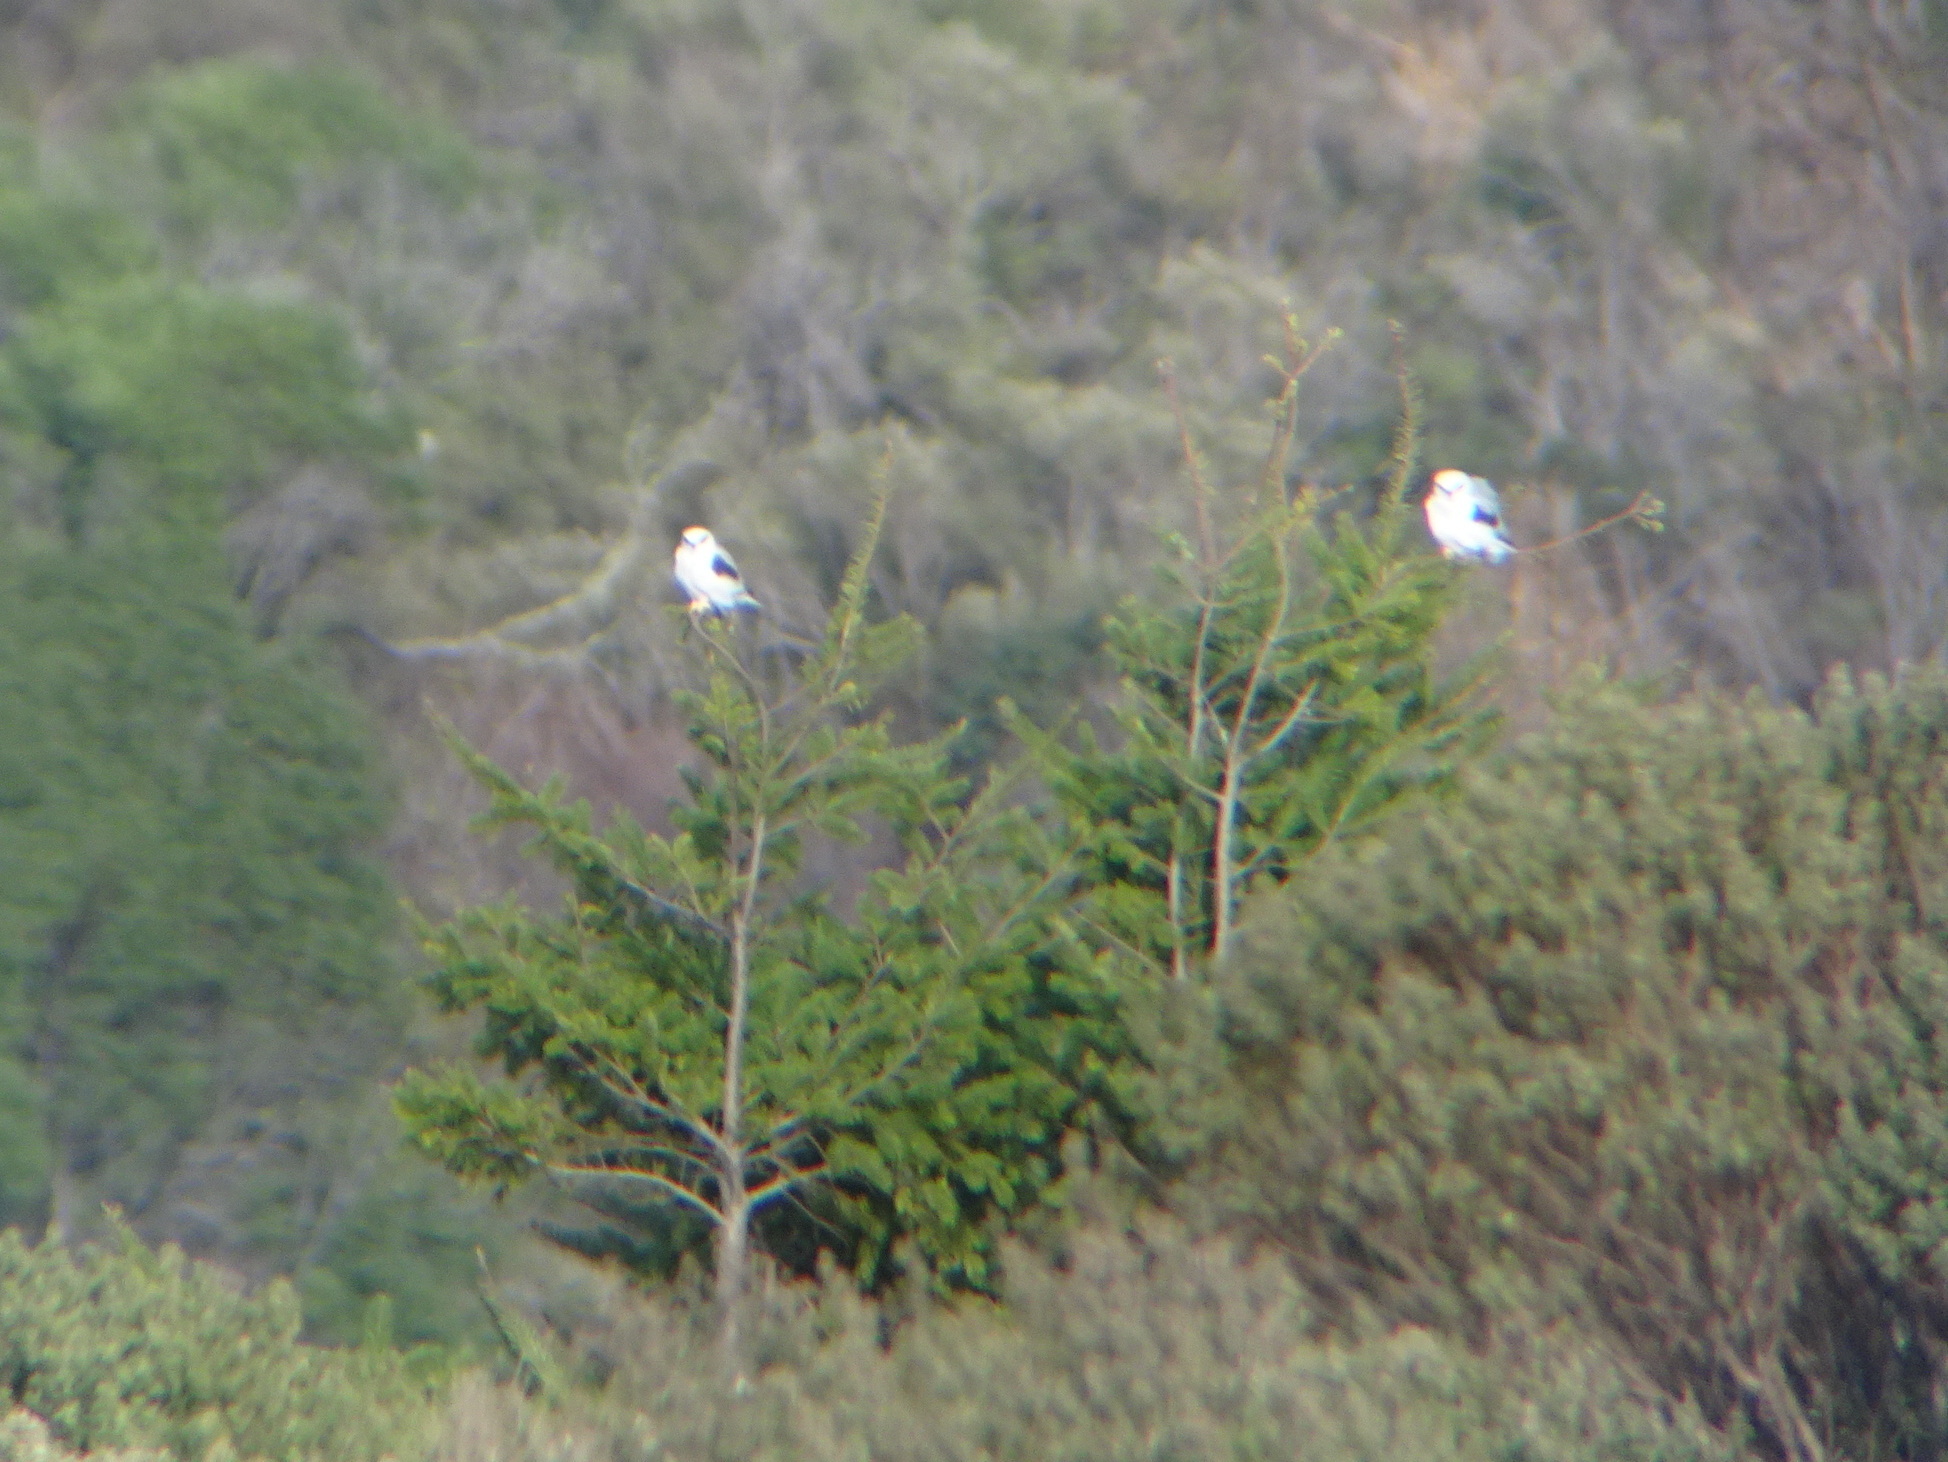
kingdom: Animalia
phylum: Chordata
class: Aves
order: Accipitriformes
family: Accipitridae
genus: Elanus
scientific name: Elanus leucurus
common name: White-tailed kite
